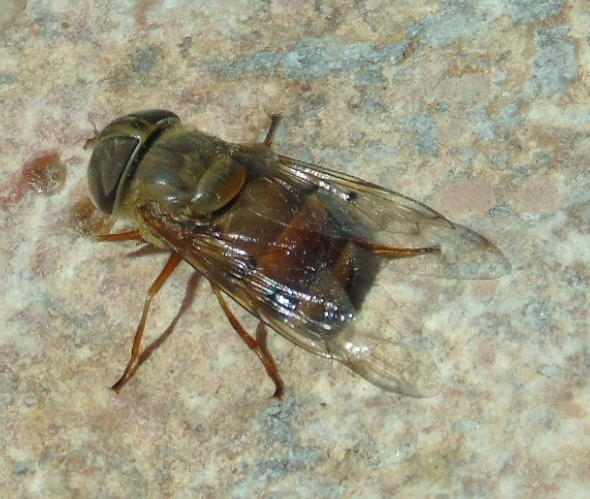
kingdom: Animalia
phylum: Arthropoda
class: Insecta
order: Diptera
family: Syrphidae
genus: Copestylum
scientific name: Copestylum macrocephalum
